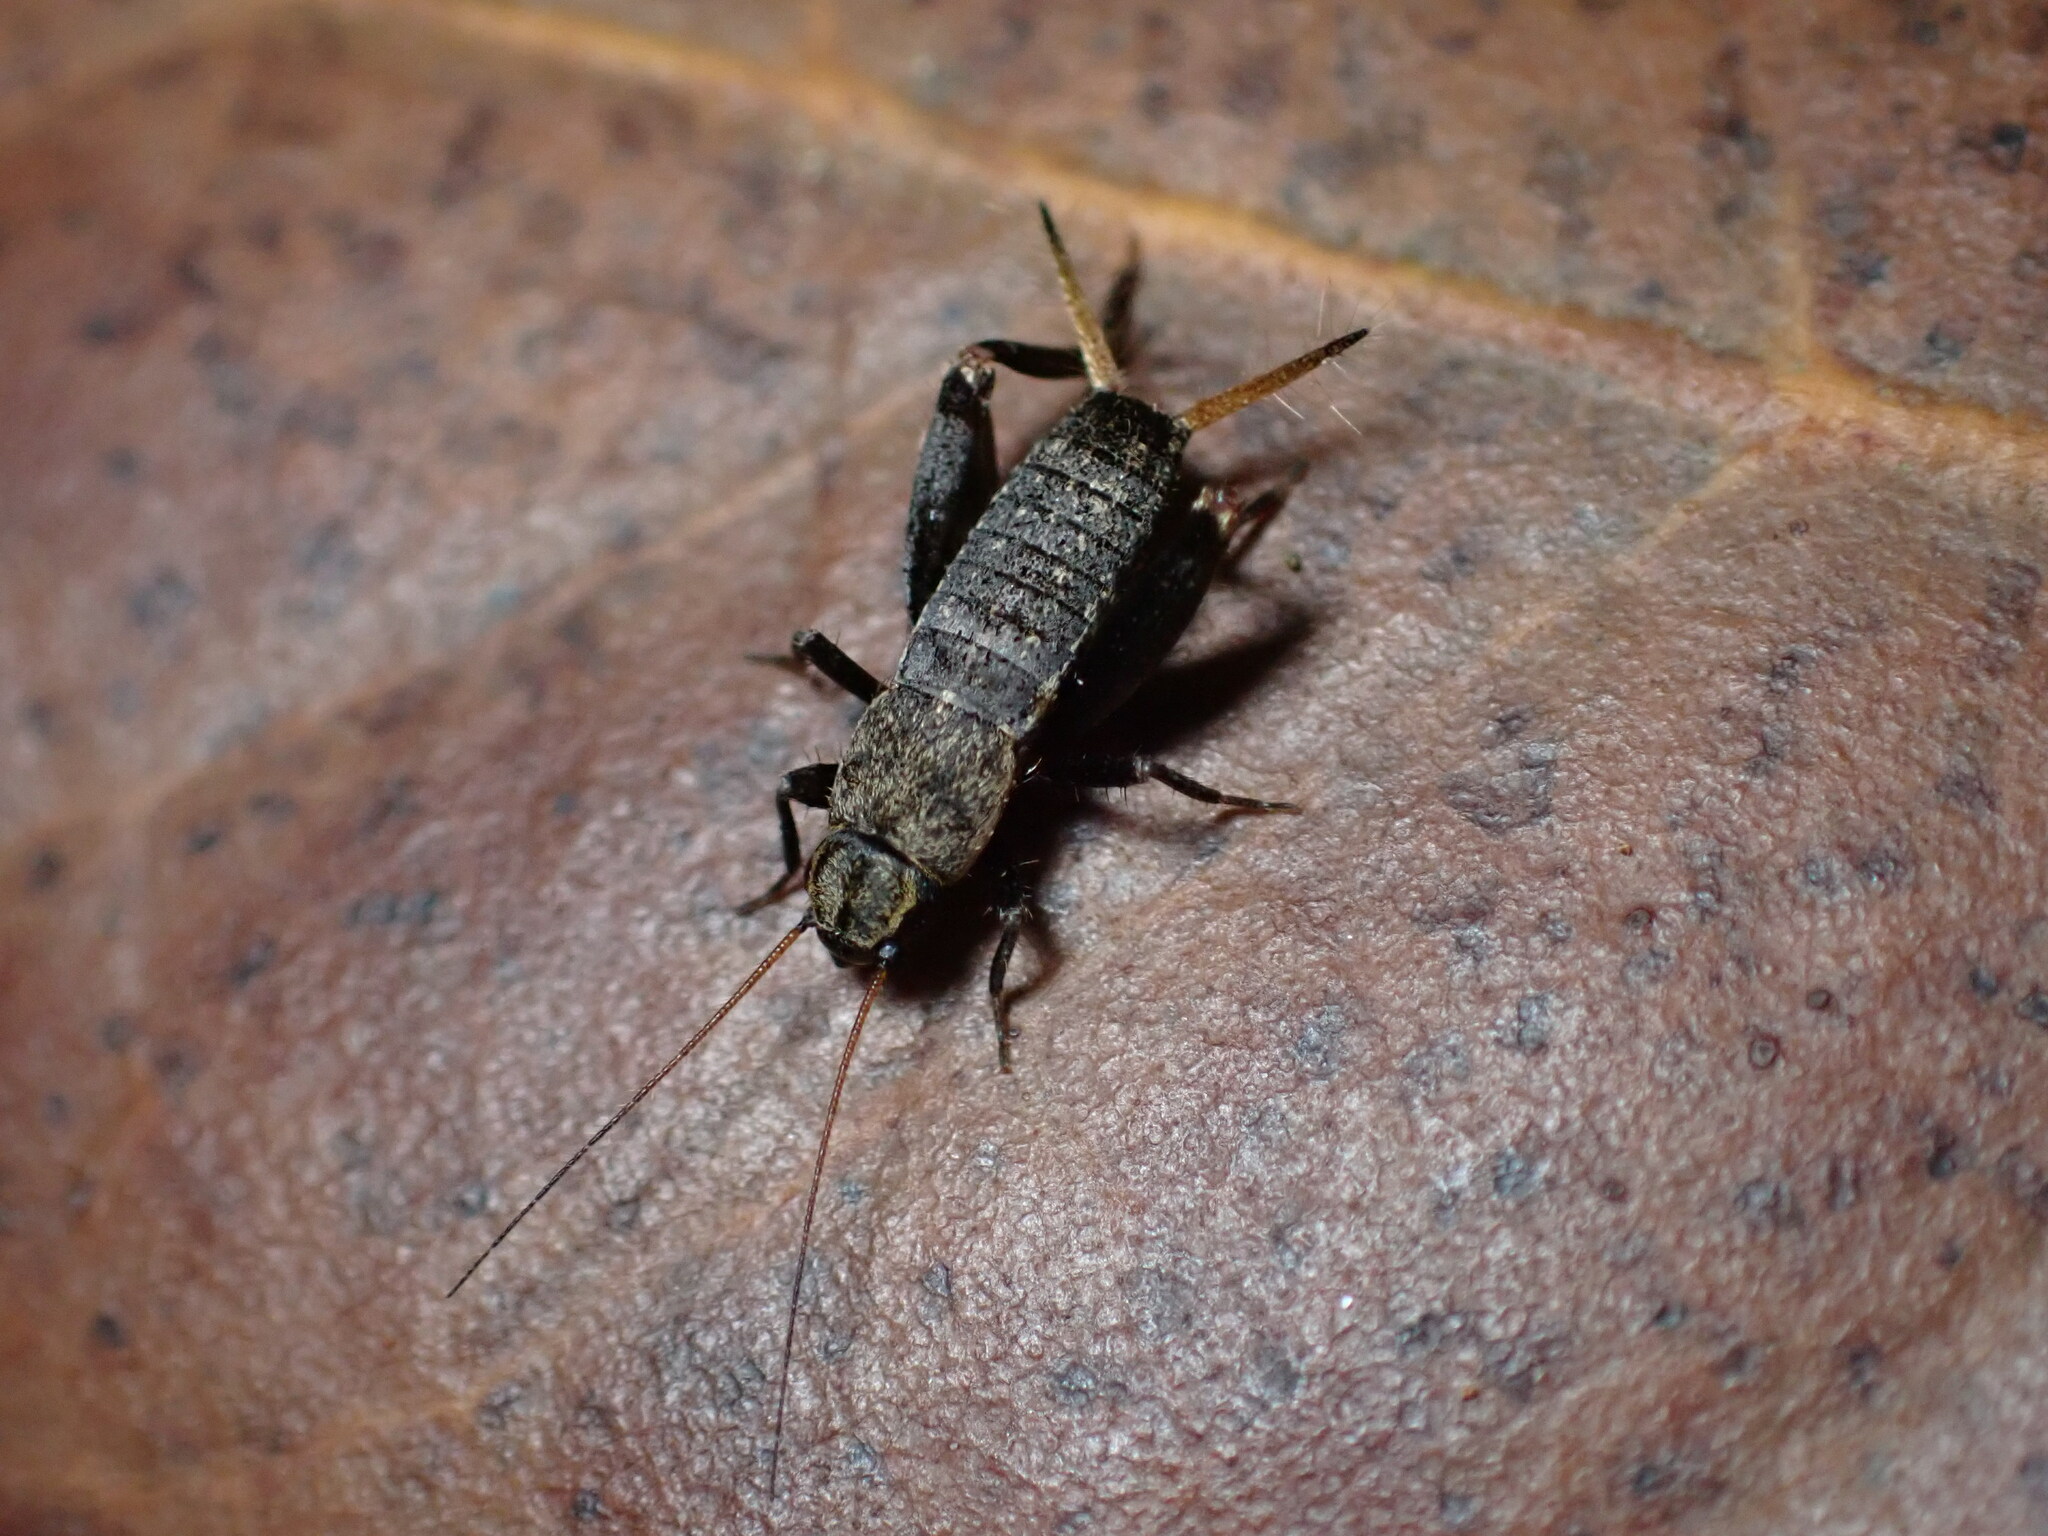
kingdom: Animalia
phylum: Arthropoda
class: Insecta
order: Orthoptera
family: Mogoplistidae
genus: Mogoplistes
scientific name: Mogoplistes brunneus
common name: Brown scale-cricket
